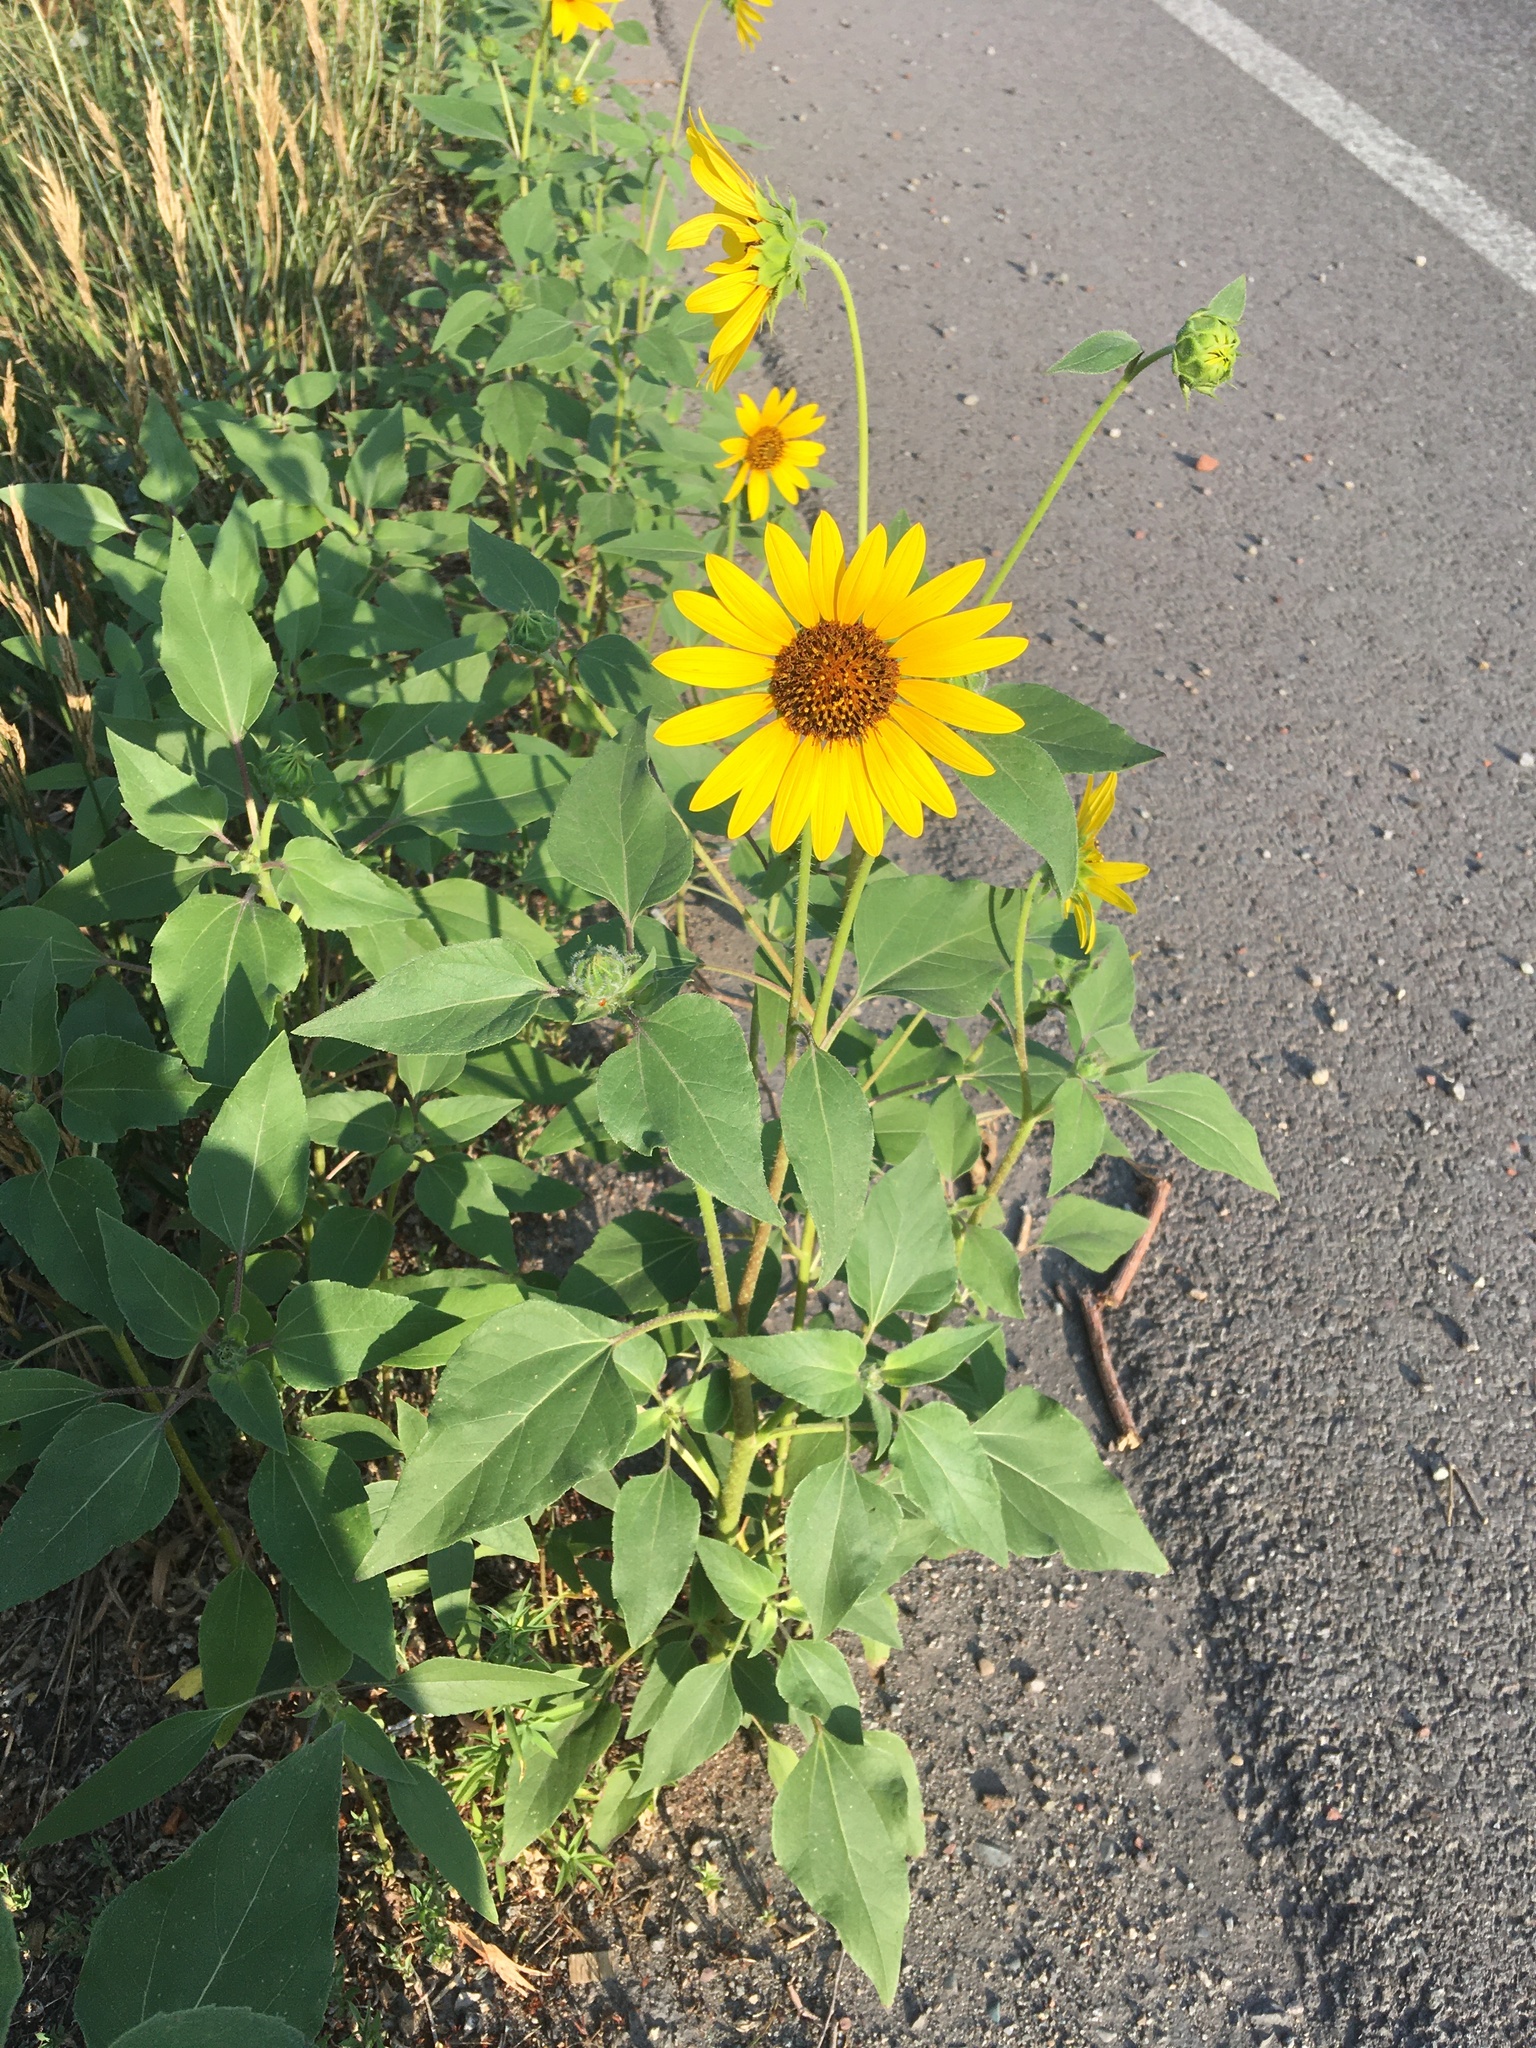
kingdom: Plantae
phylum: Tracheophyta
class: Magnoliopsida
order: Asterales
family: Asteraceae
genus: Helianthus
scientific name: Helianthus annuus
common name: Sunflower
